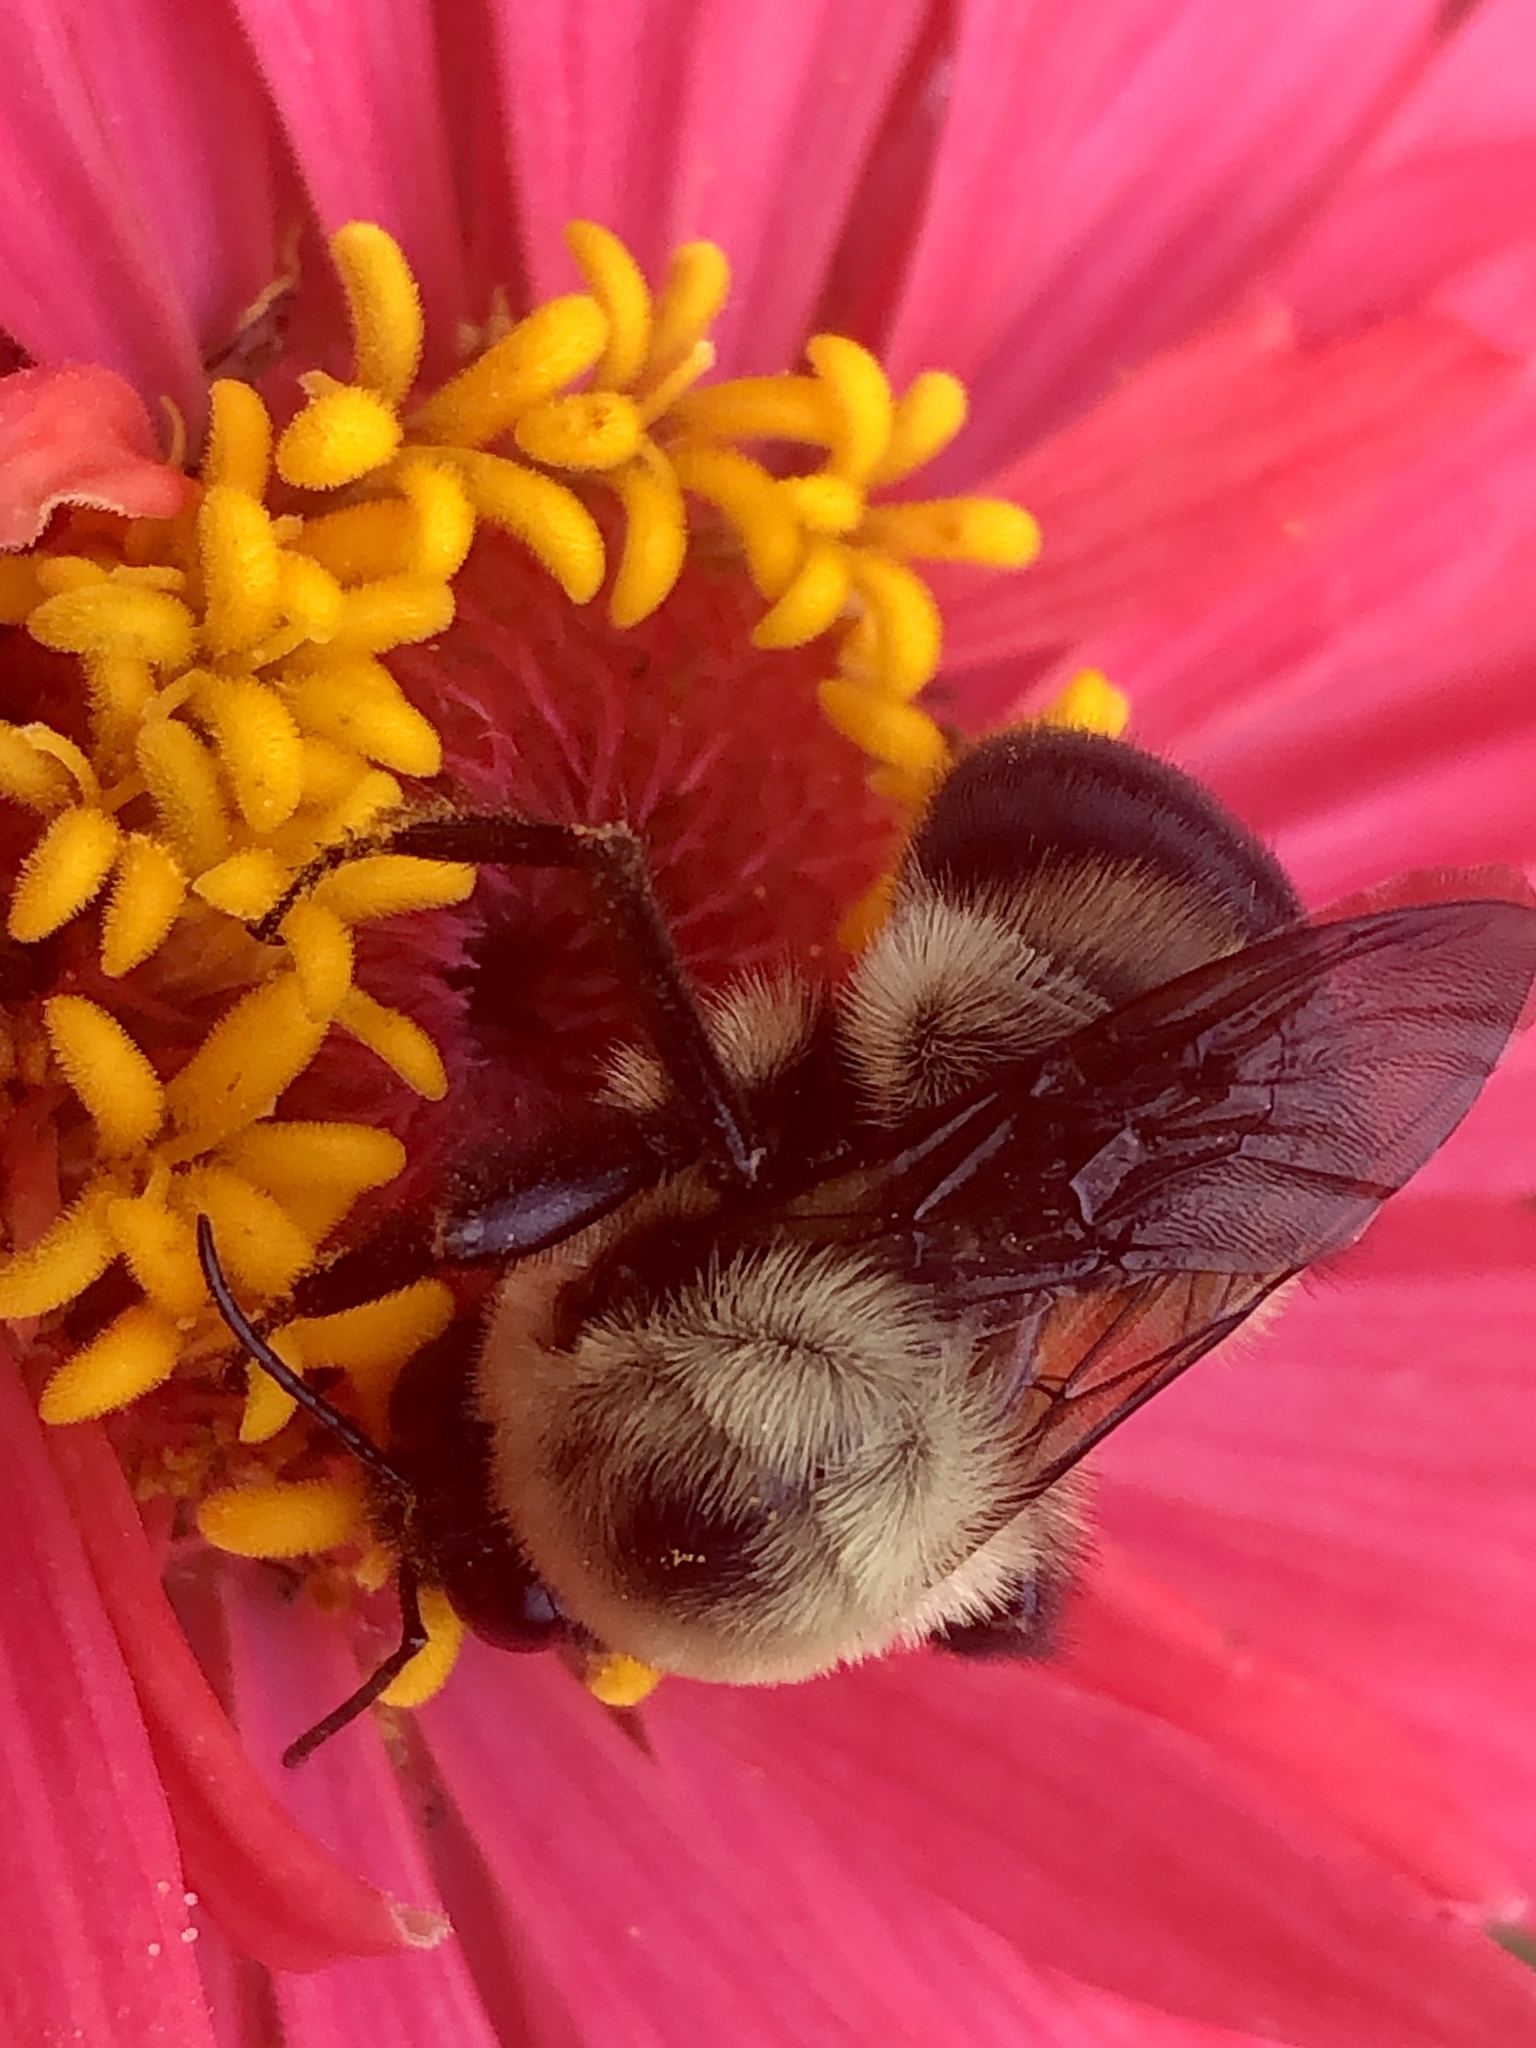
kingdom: Animalia
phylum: Arthropoda
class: Insecta
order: Hymenoptera
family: Apidae
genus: Bombus
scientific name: Bombus griseocollis
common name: Brown-belted bumble bee
